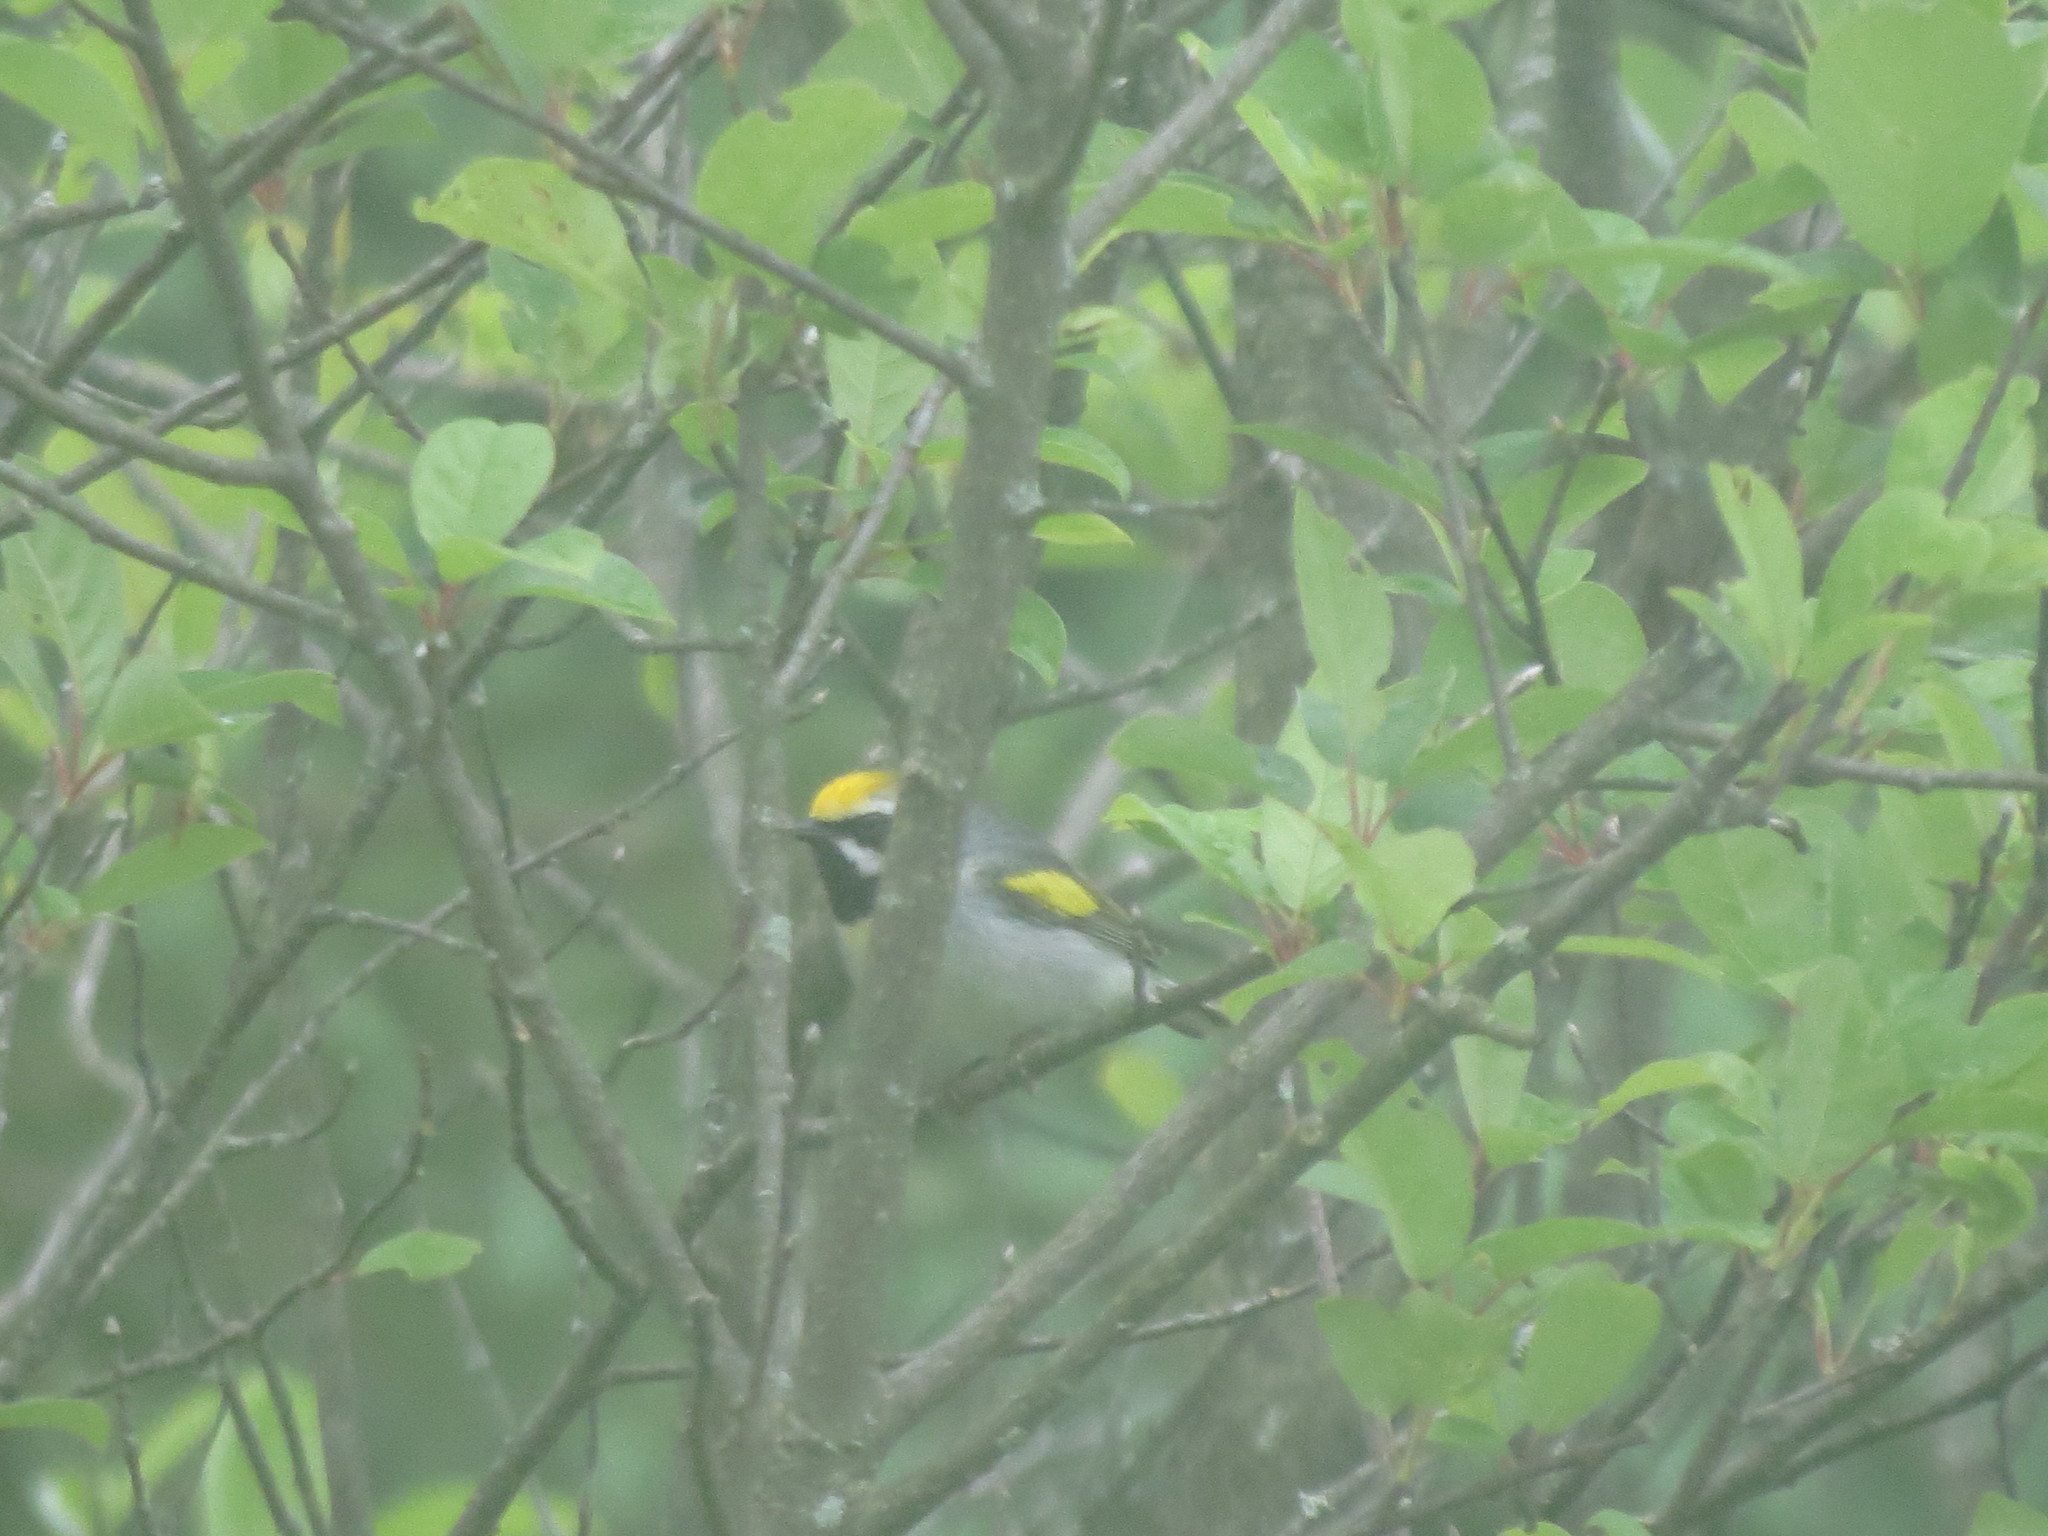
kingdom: Animalia
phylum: Chordata
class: Aves
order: Passeriformes
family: Parulidae
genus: Vermivora
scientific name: Vermivora chrysoptera
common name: Golden-winged warbler
